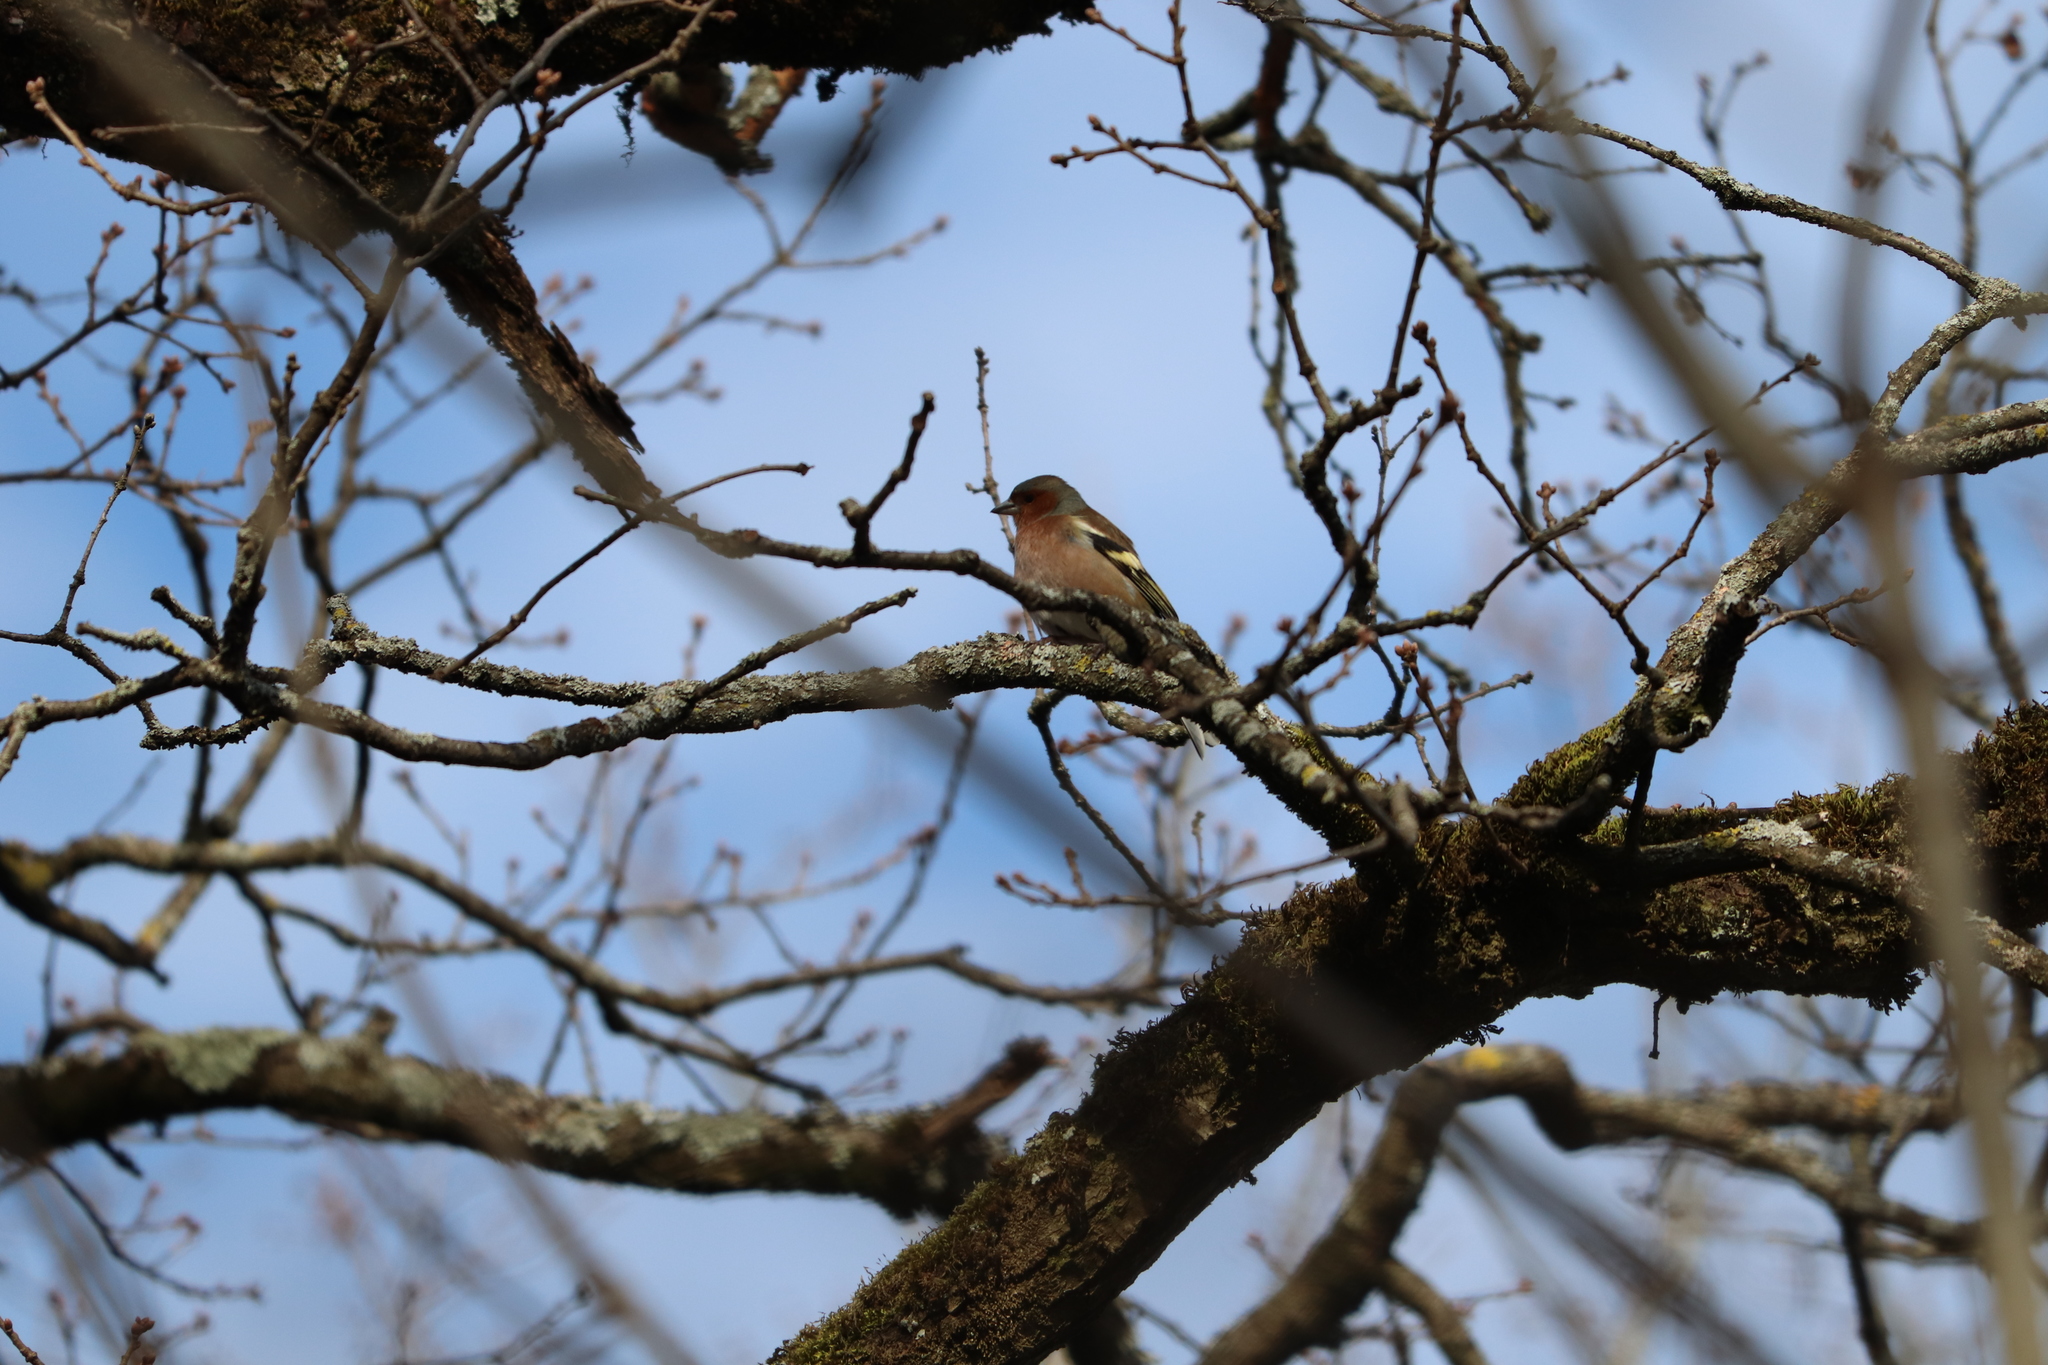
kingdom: Animalia
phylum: Chordata
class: Aves
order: Passeriformes
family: Fringillidae
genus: Fringilla
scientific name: Fringilla coelebs
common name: Common chaffinch
